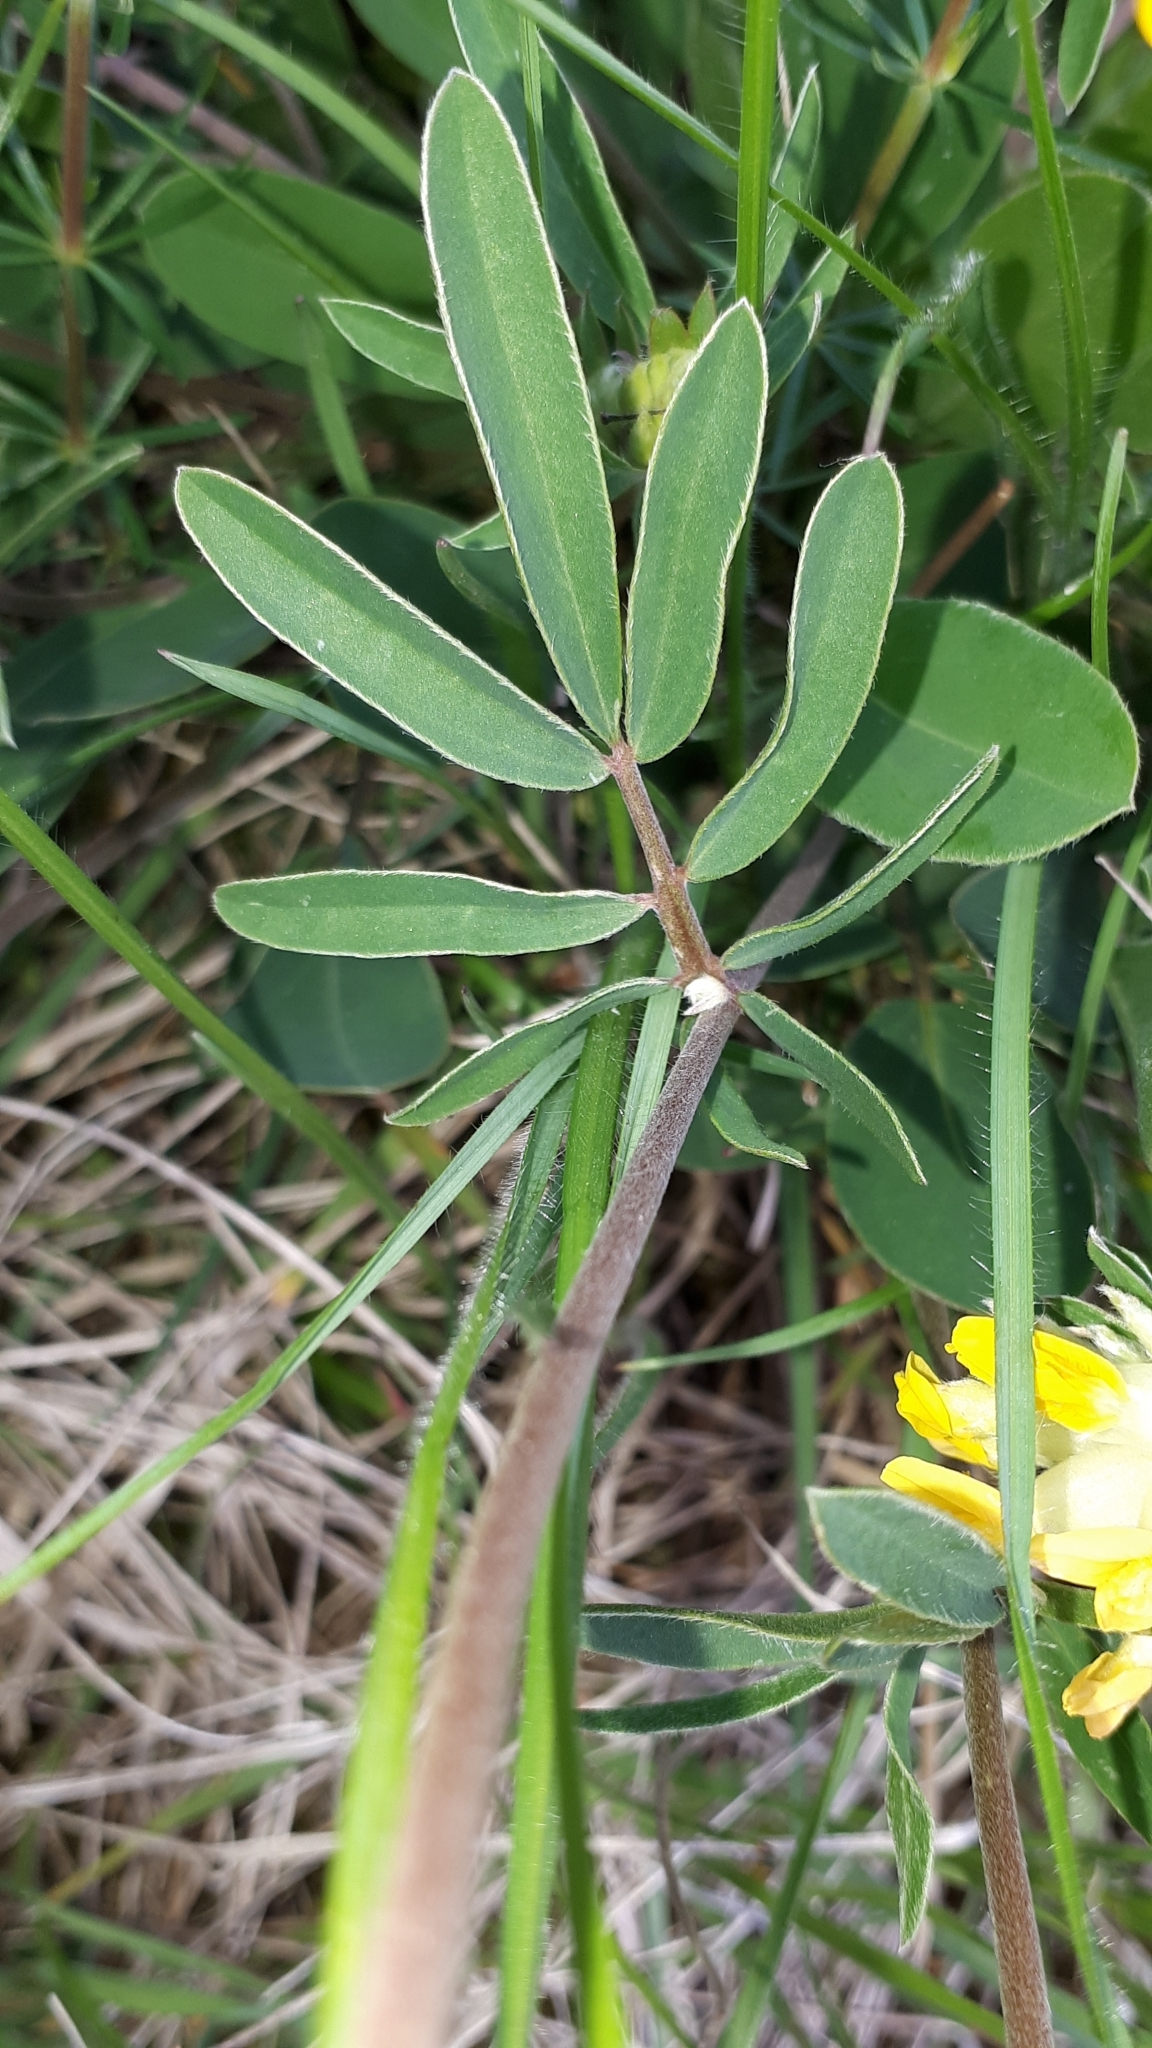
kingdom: Plantae
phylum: Tracheophyta
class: Magnoliopsida
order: Fabales
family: Fabaceae
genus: Anthyllis
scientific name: Anthyllis vulneraria
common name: Kidney vetch
